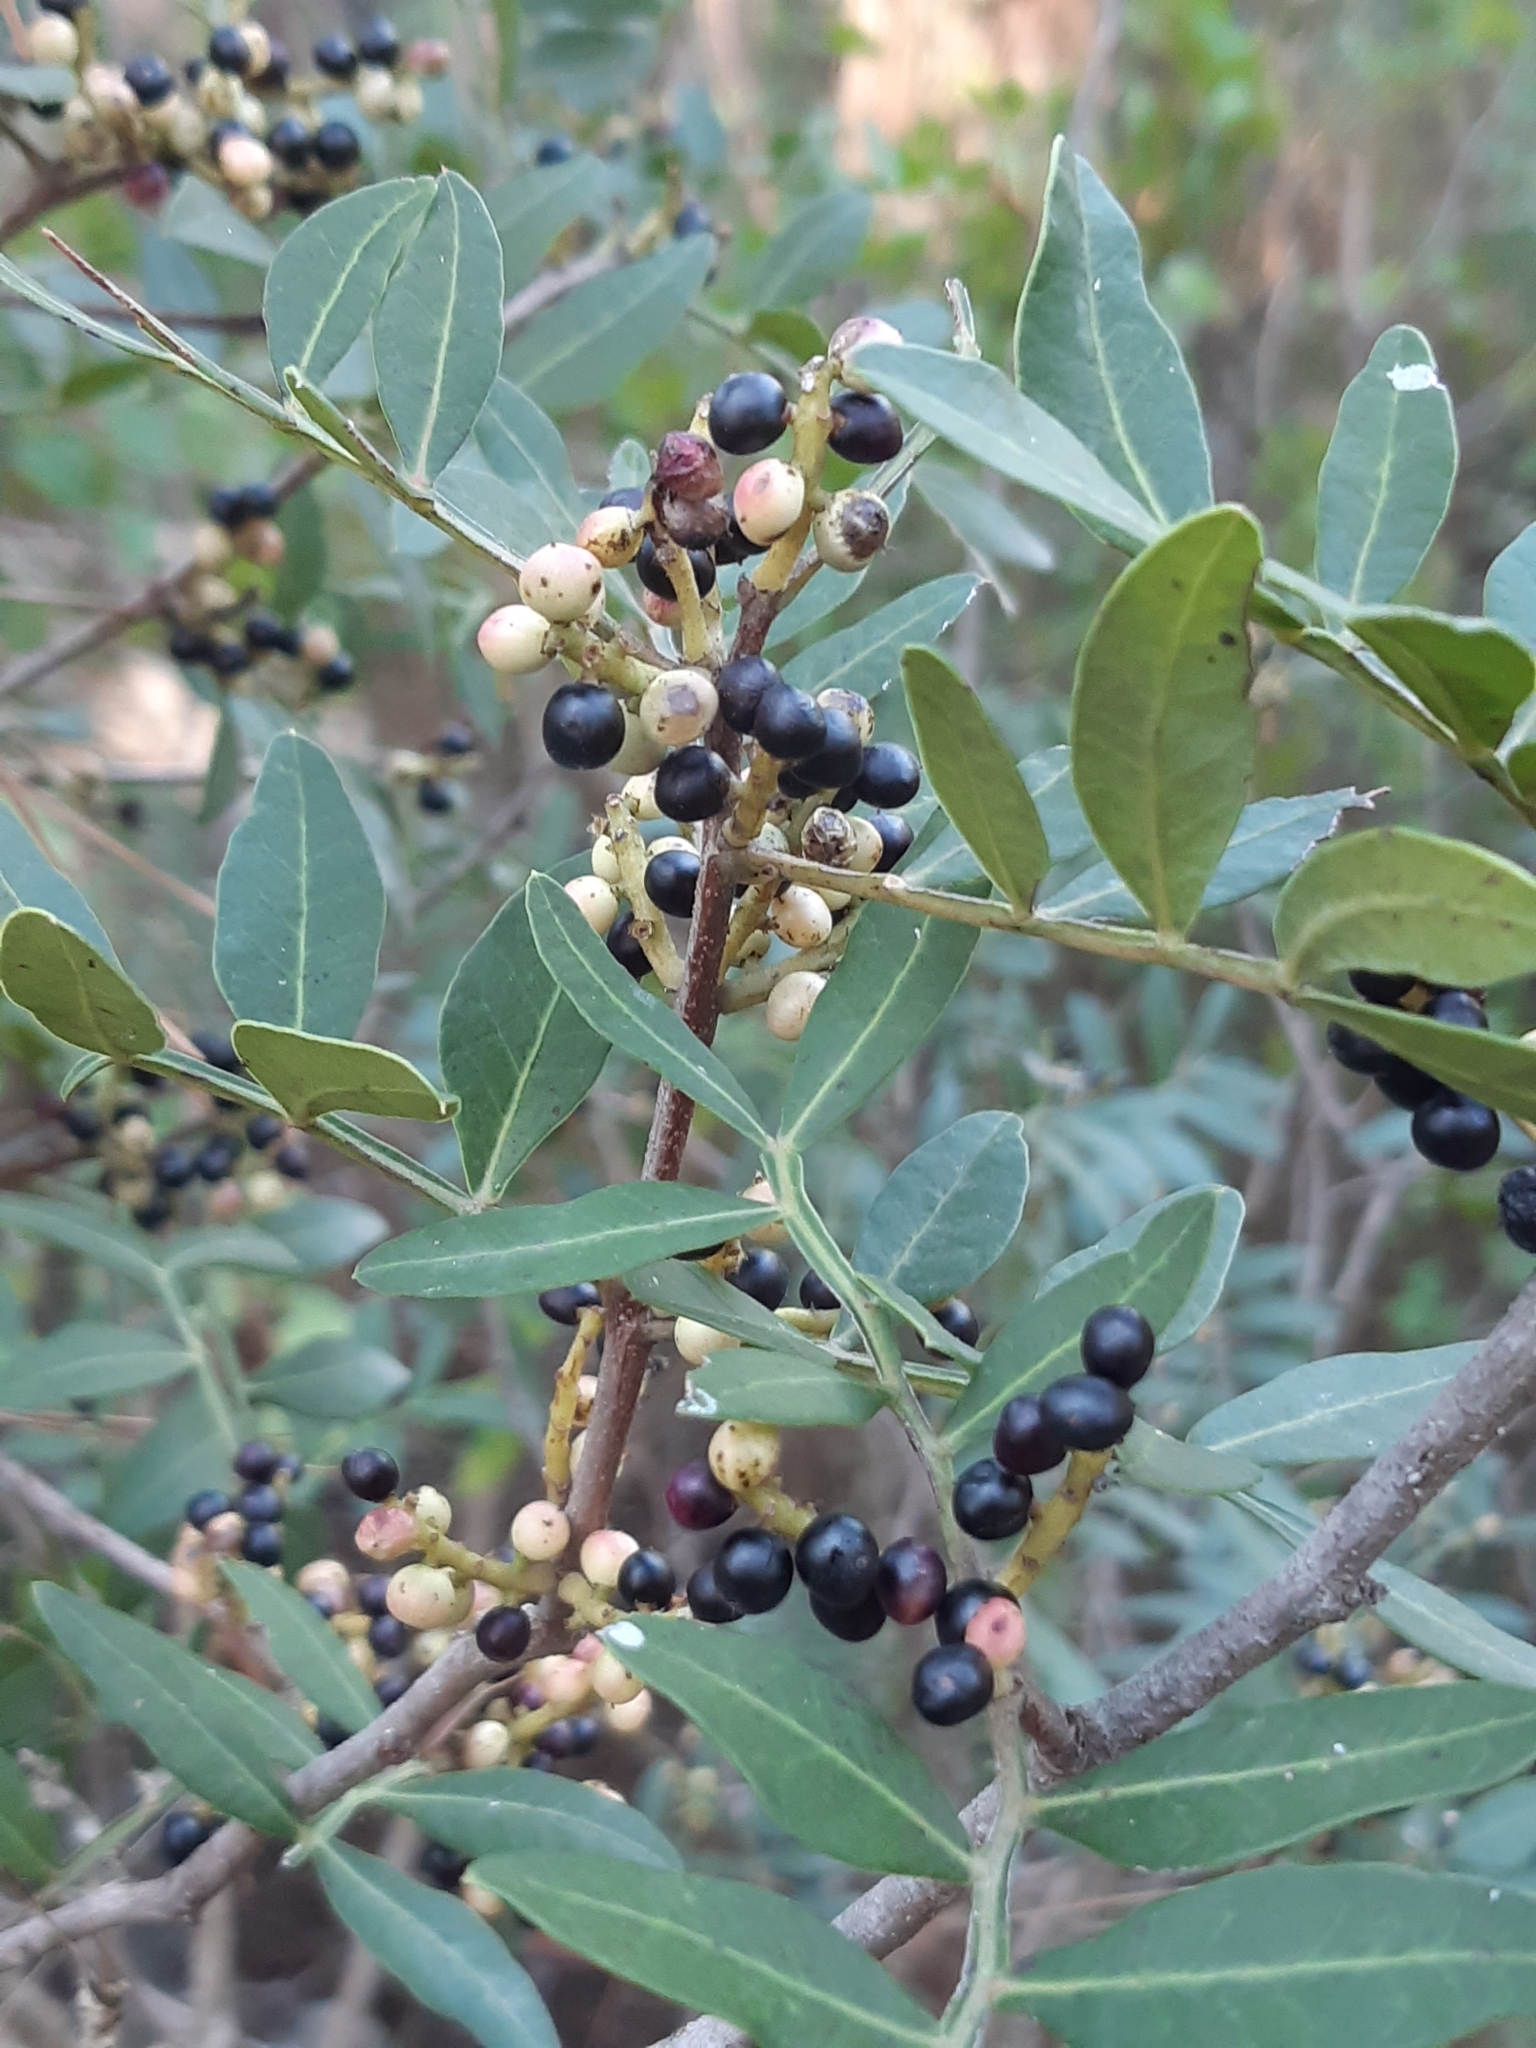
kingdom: Plantae
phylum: Tracheophyta
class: Magnoliopsida
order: Sapindales
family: Anacardiaceae
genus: Pistacia
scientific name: Pistacia lentiscus
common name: Lentisk
